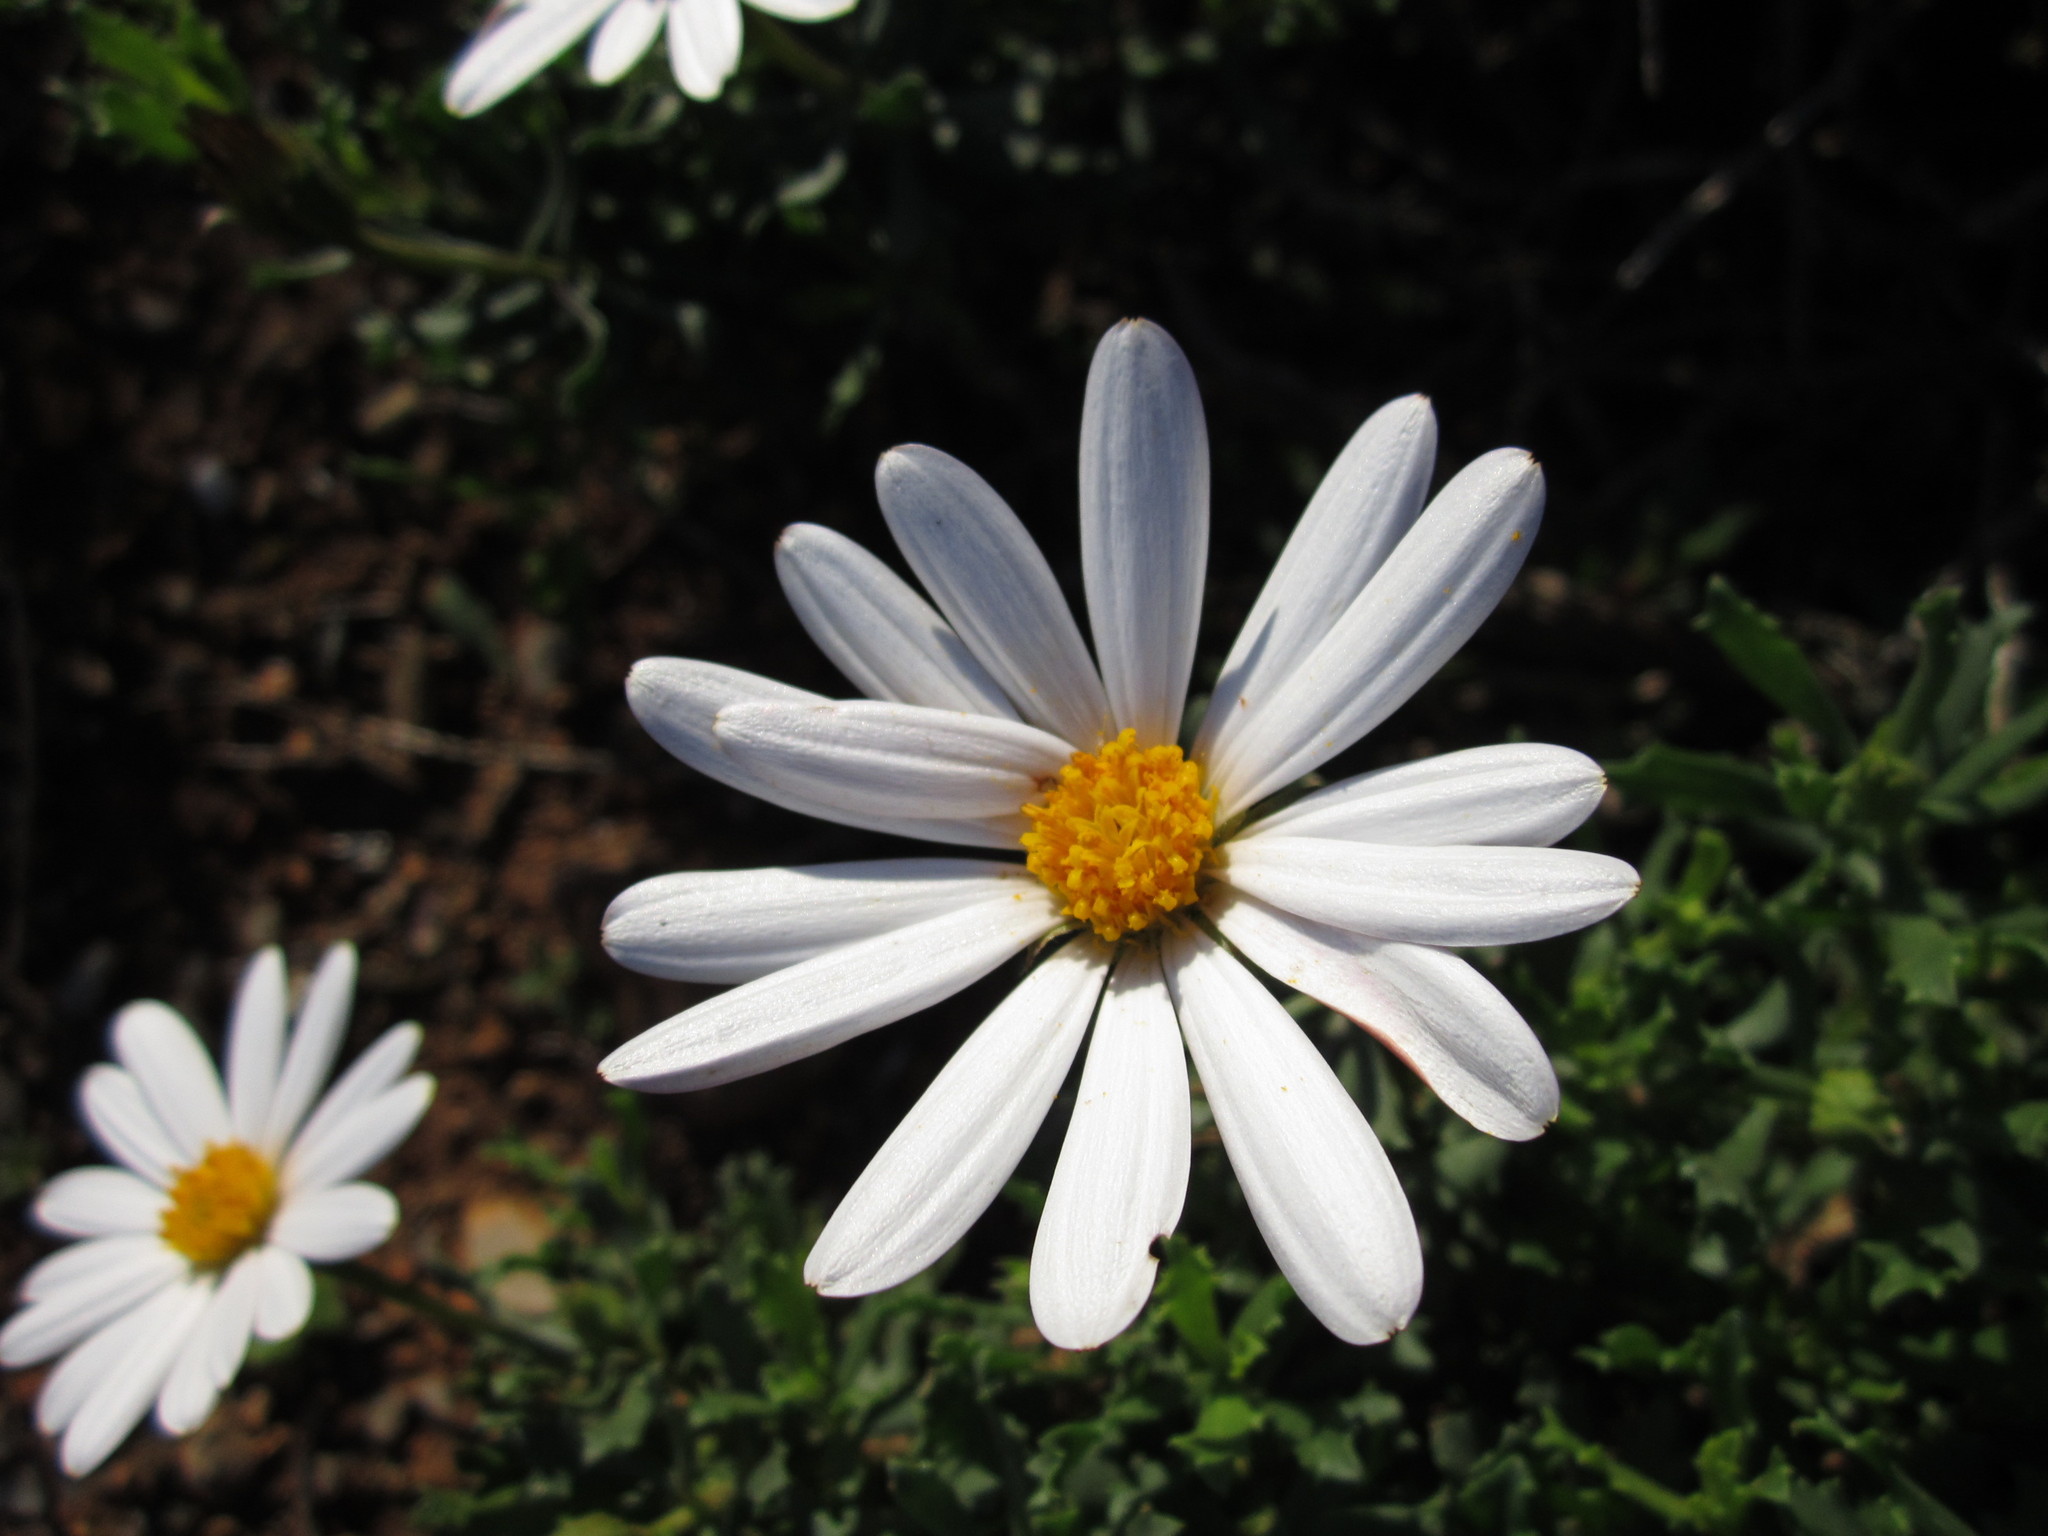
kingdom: Plantae
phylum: Tracheophyta
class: Magnoliopsida
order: Asterales
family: Asteraceae
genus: Dimorphotheca
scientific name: Dimorphotheca cuneata
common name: Daisy
